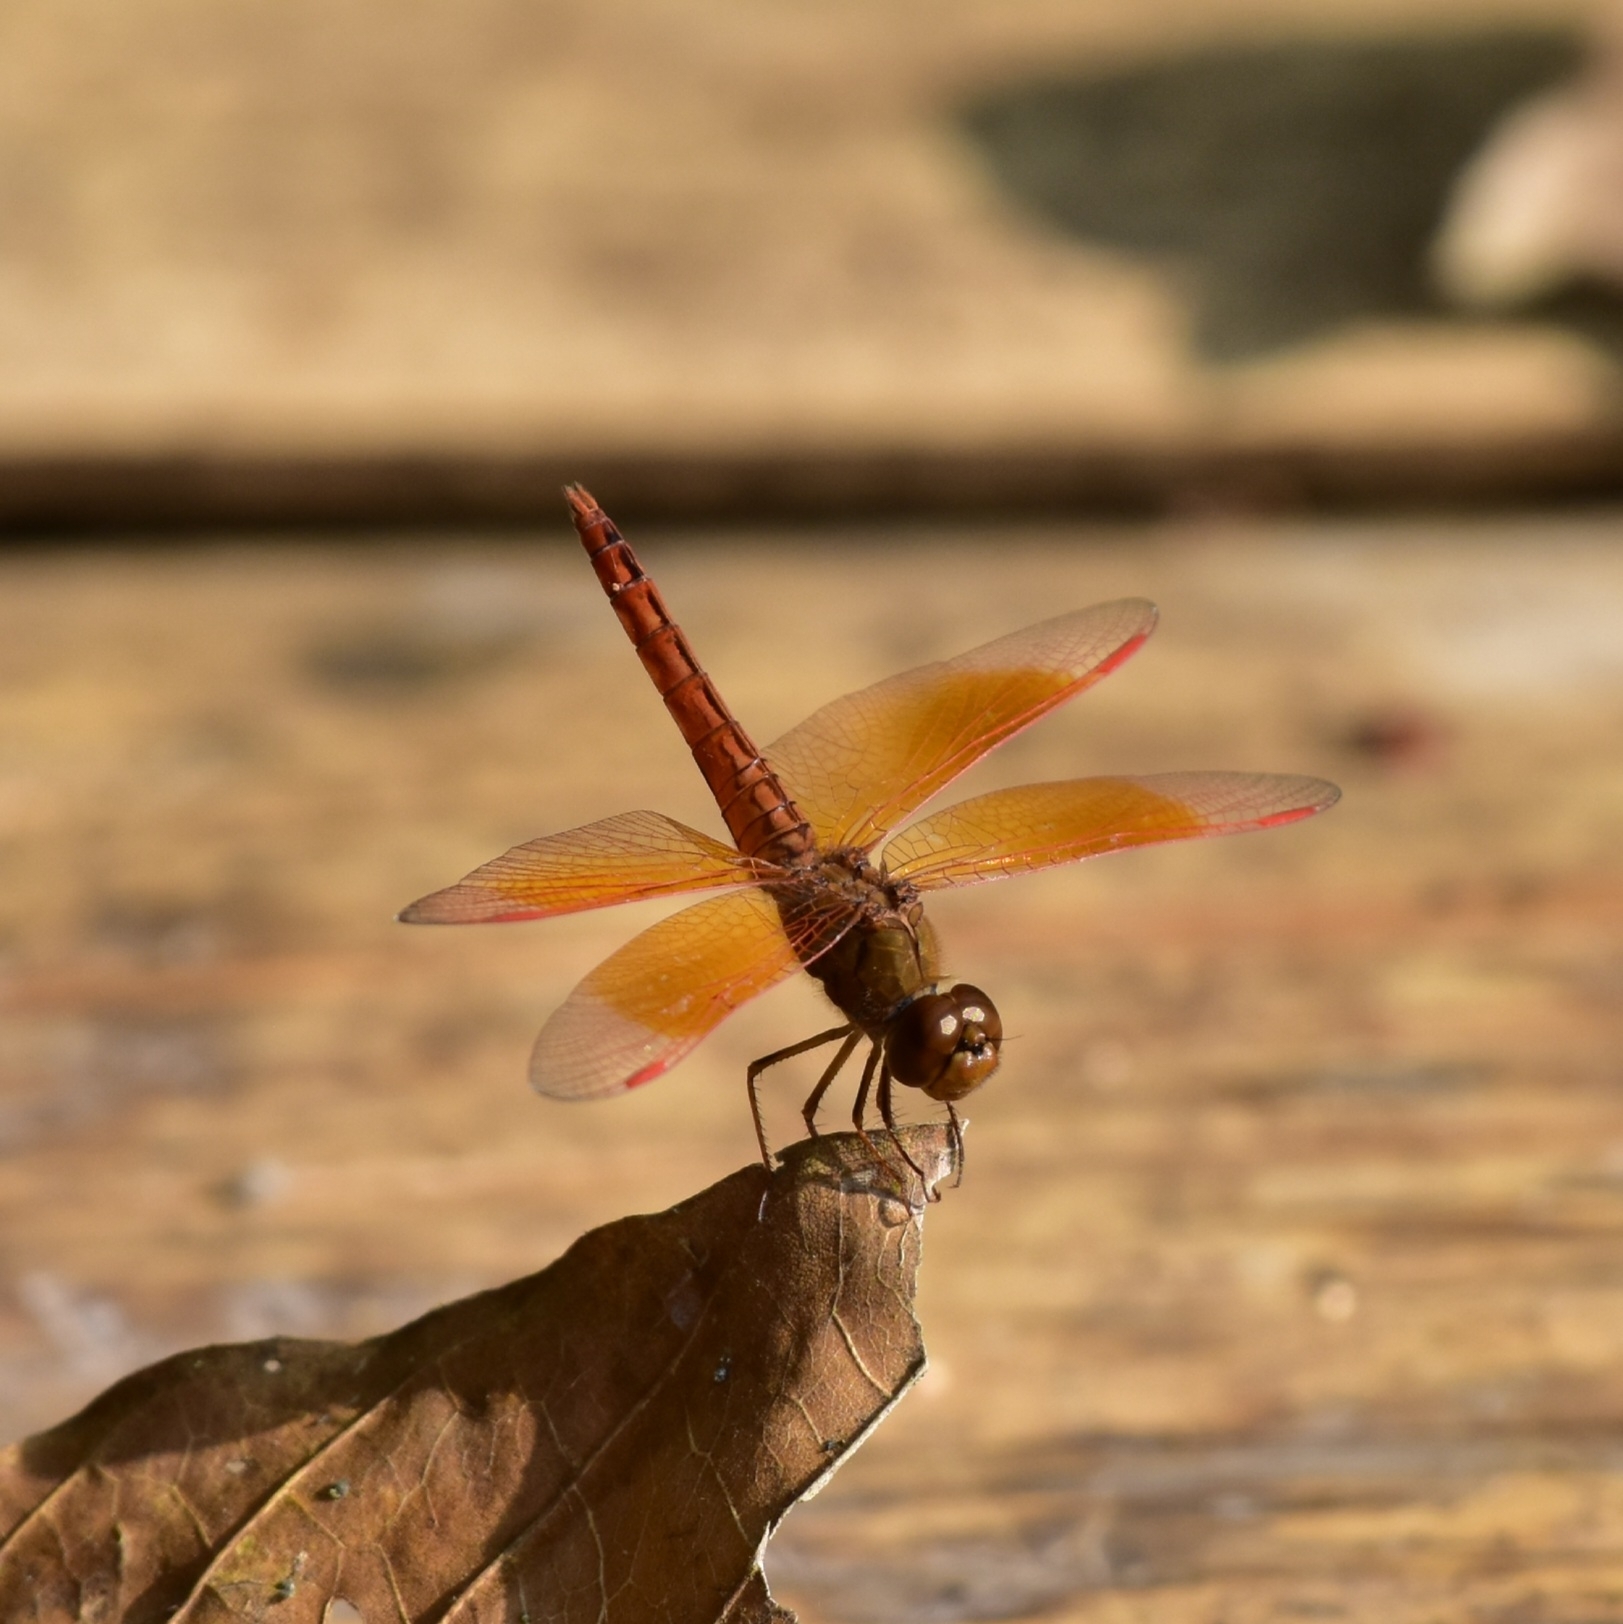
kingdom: Animalia
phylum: Arthropoda
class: Insecta
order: Odonata
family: Libellulidae
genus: Brachythemis
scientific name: Brachythemis contaminata
